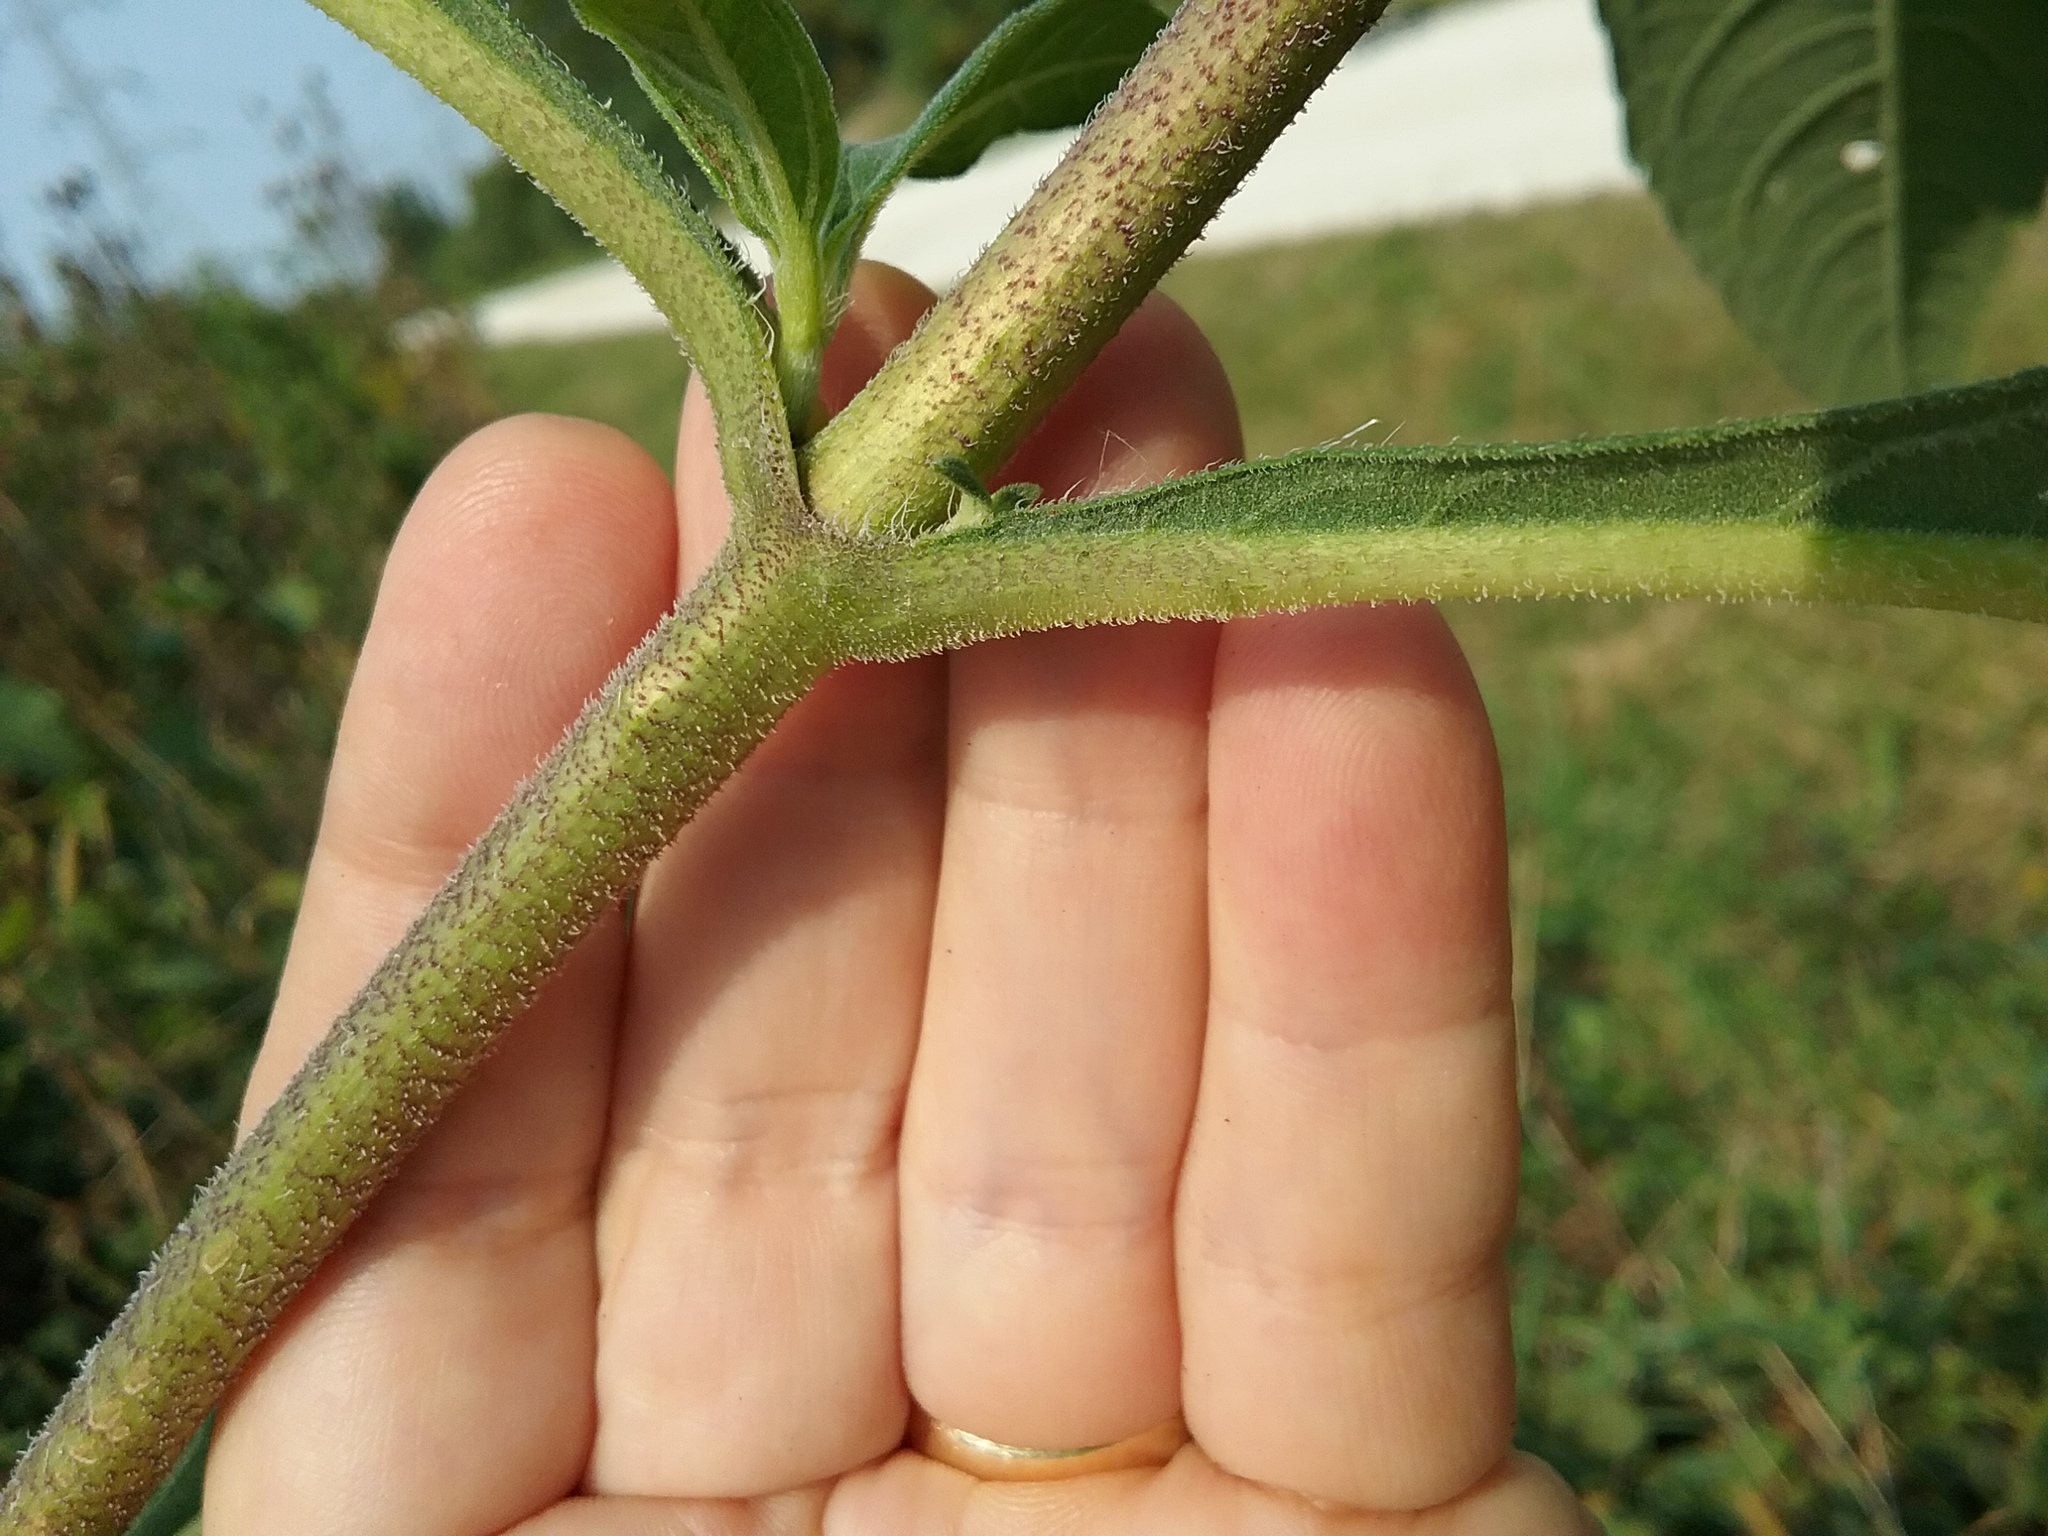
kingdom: Plantae
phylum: Tracheophyta
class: Magnoliopsida
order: Asterales
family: Asteraceae
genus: Helianthus
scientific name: Helianthus tuberosus
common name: Jerusalem artichoke
